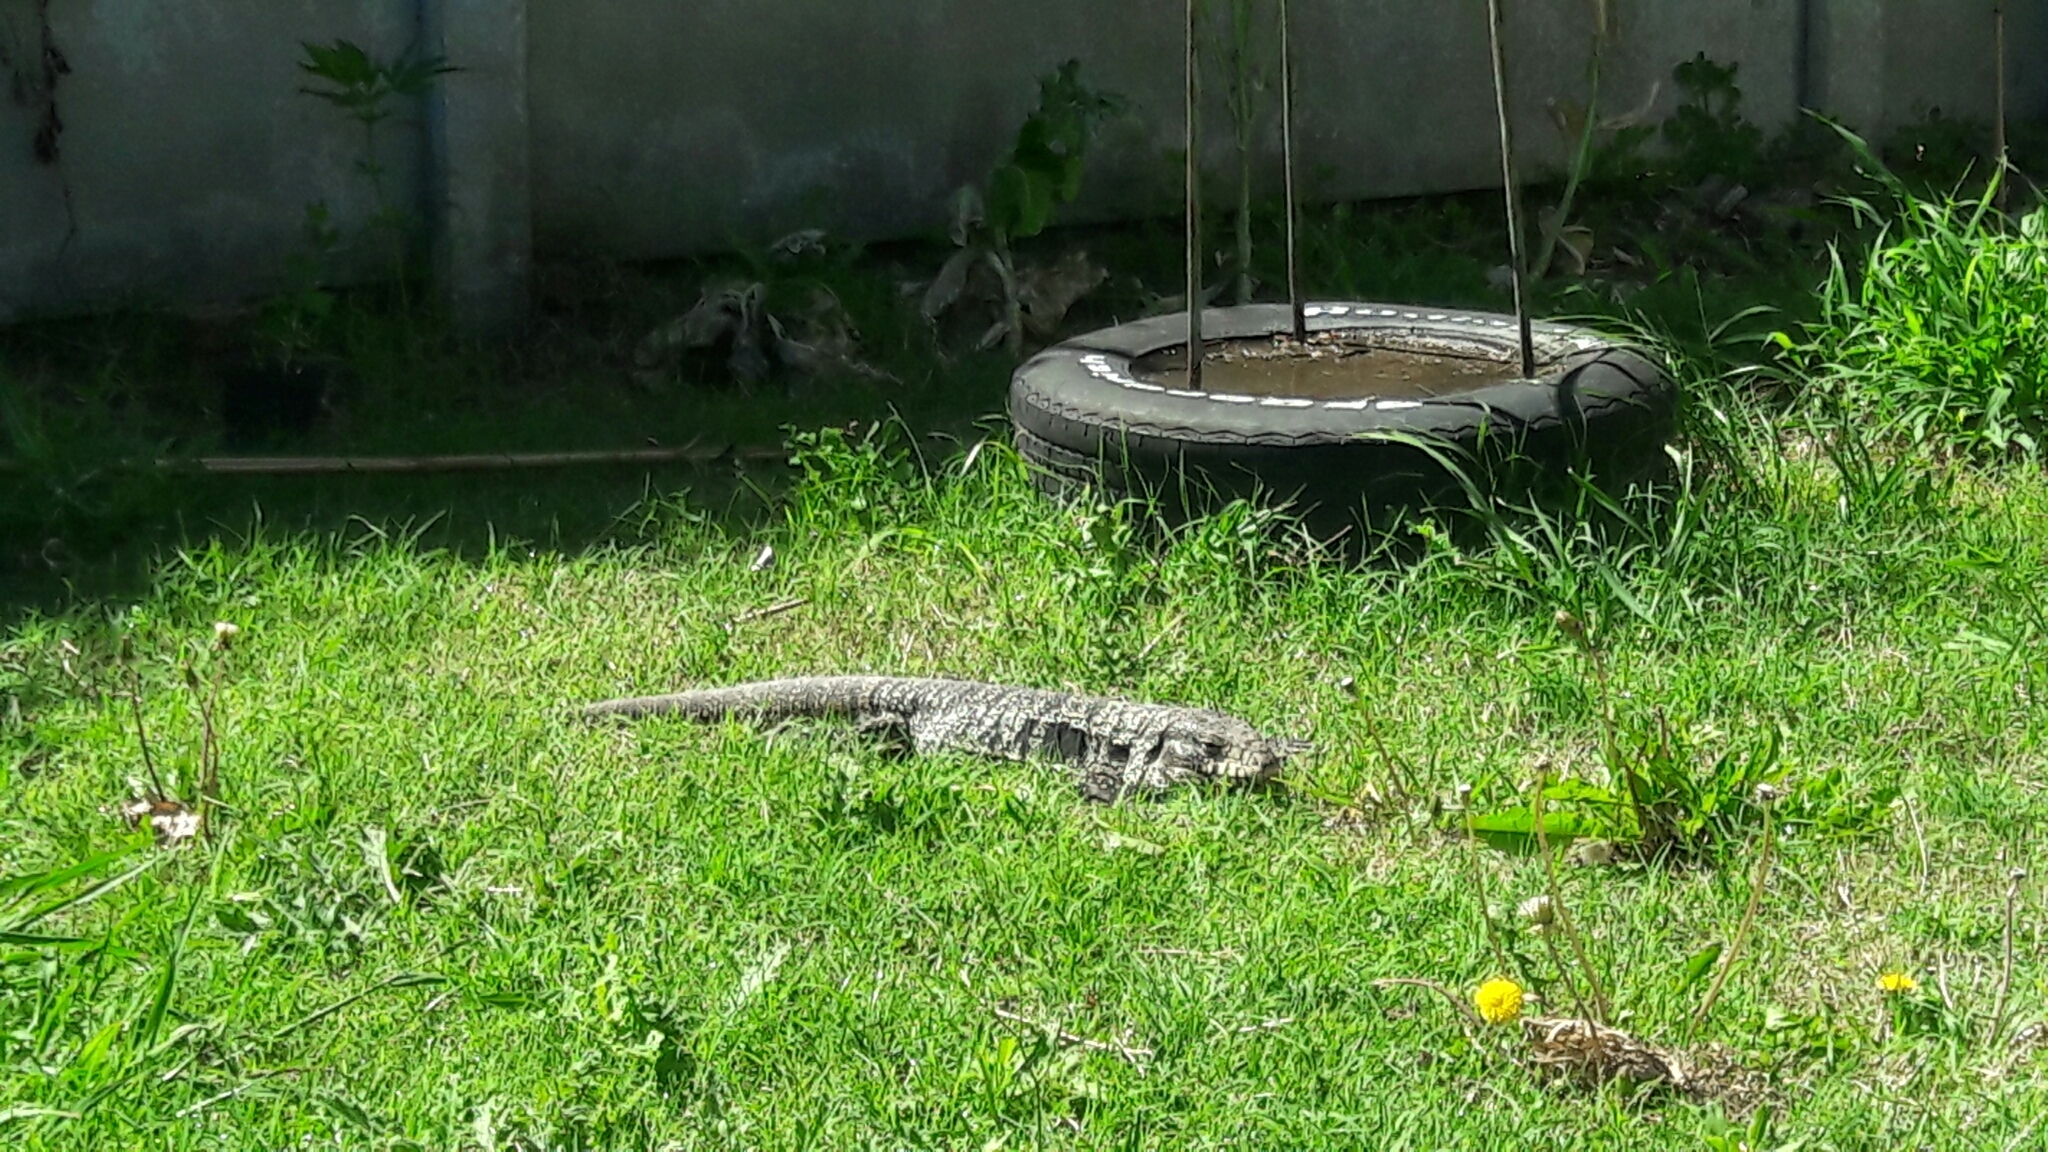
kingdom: Animalia
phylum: Chordata
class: Squamata
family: Teiidae
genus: Salvator
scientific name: Salvator merianae
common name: Argentine black and white tegu
